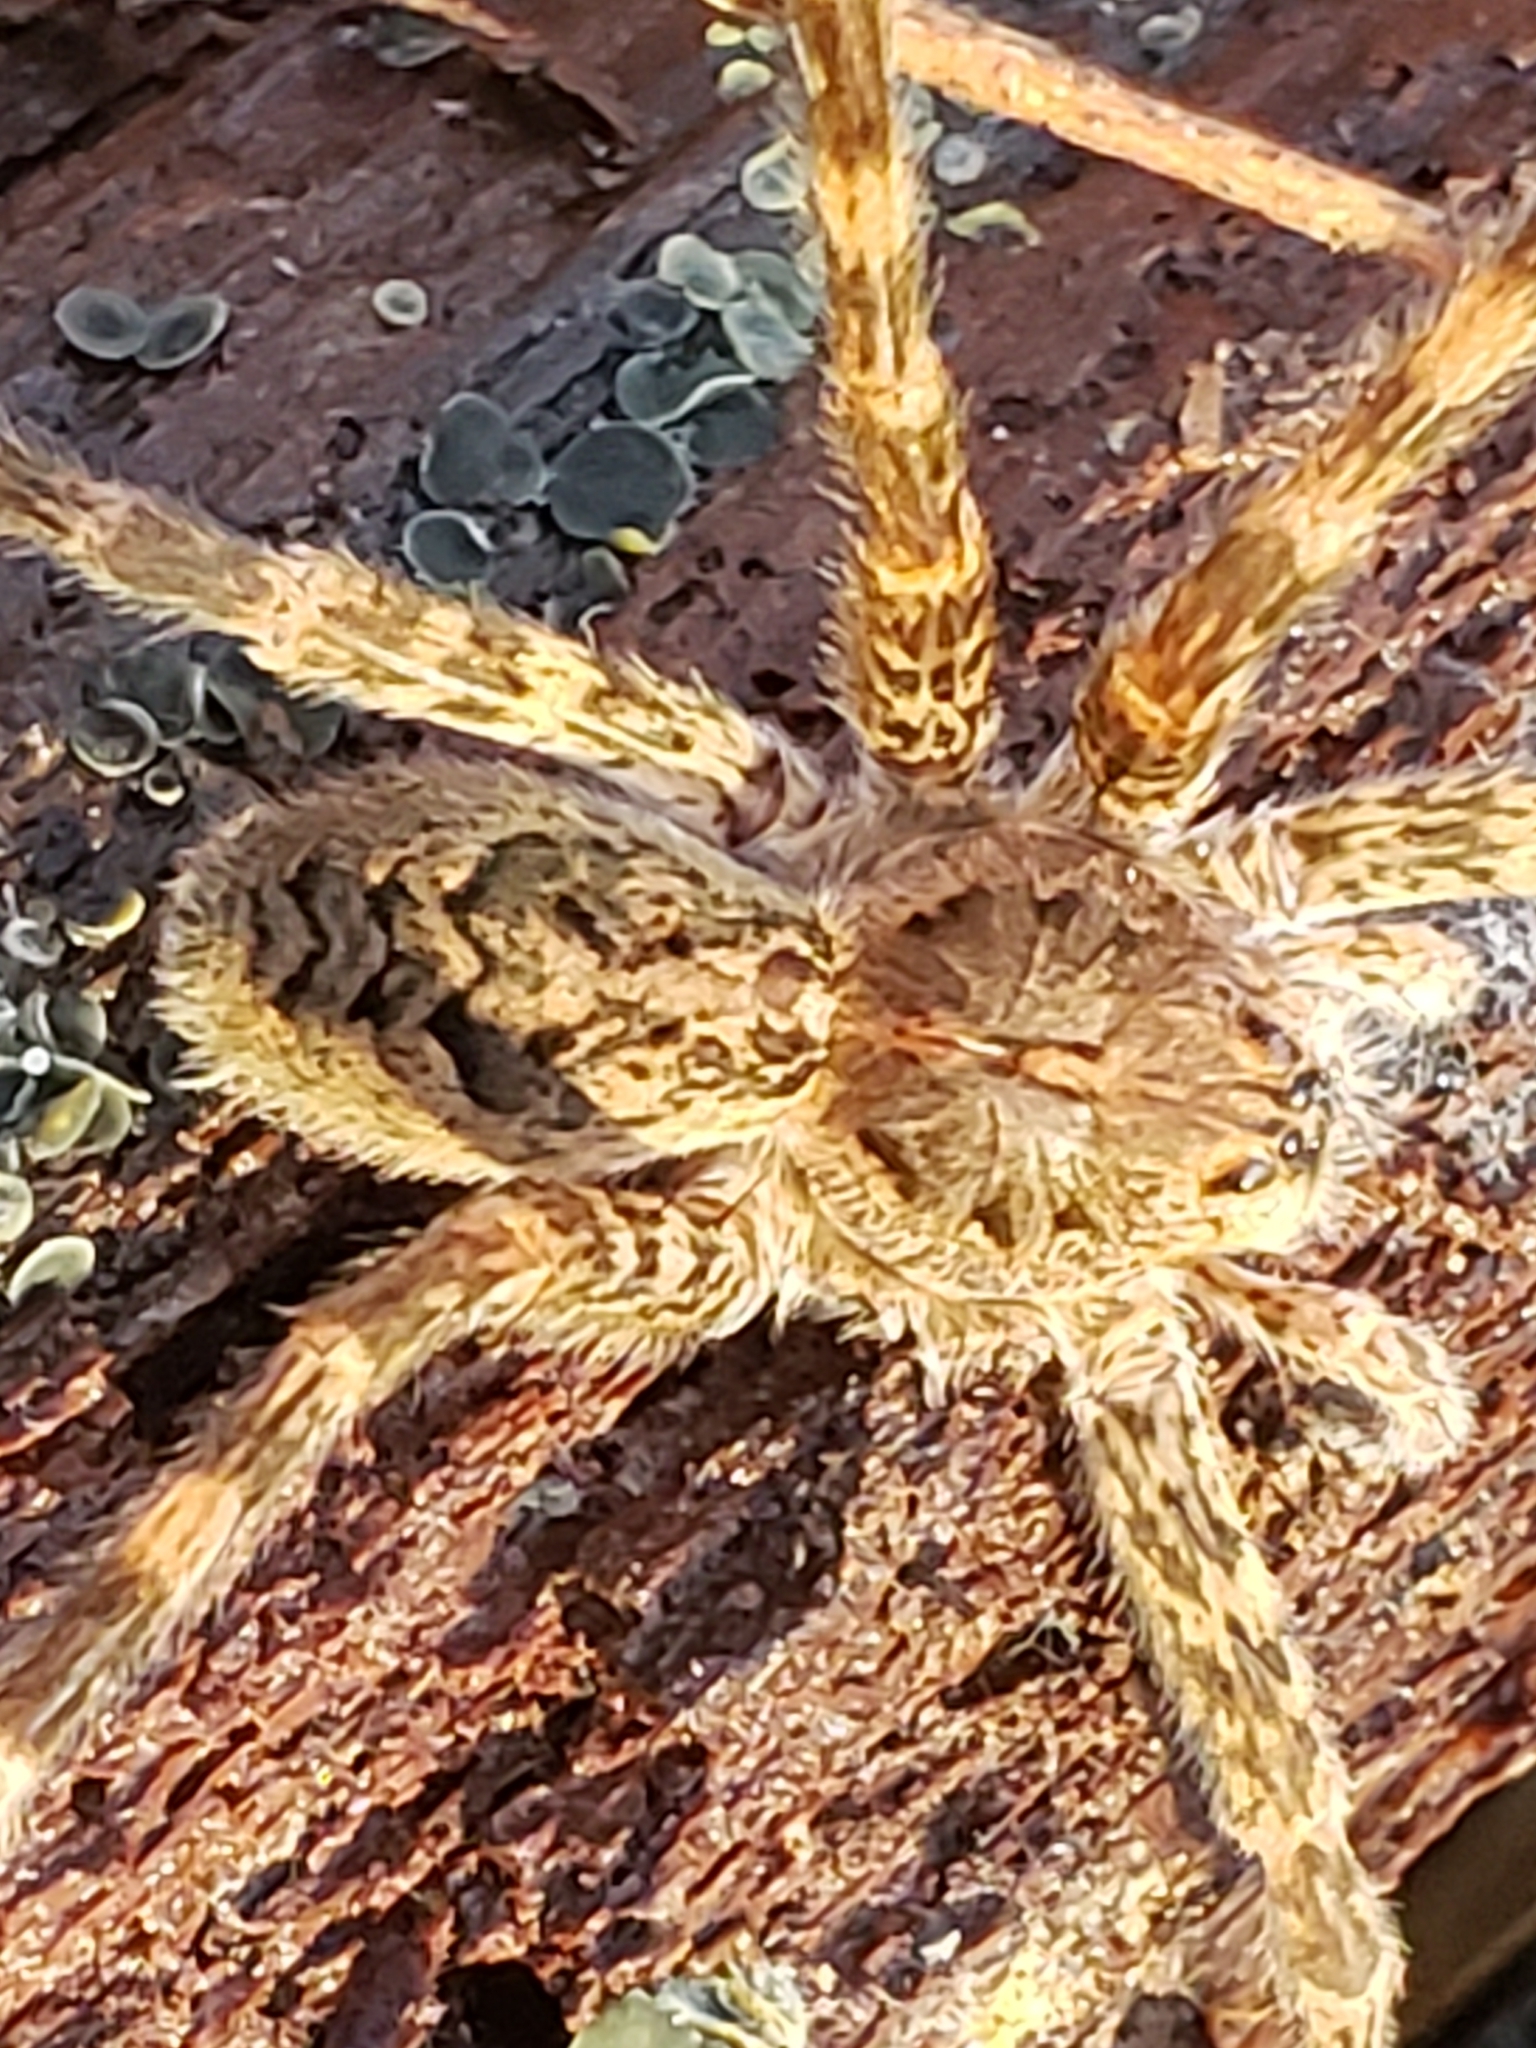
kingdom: Animalia
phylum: Arthropoda
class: Arachnida
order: Araneae
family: Pisauridae
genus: Dolomedes
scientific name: Dolomedes tenebrosus
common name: Dark fishing spider
